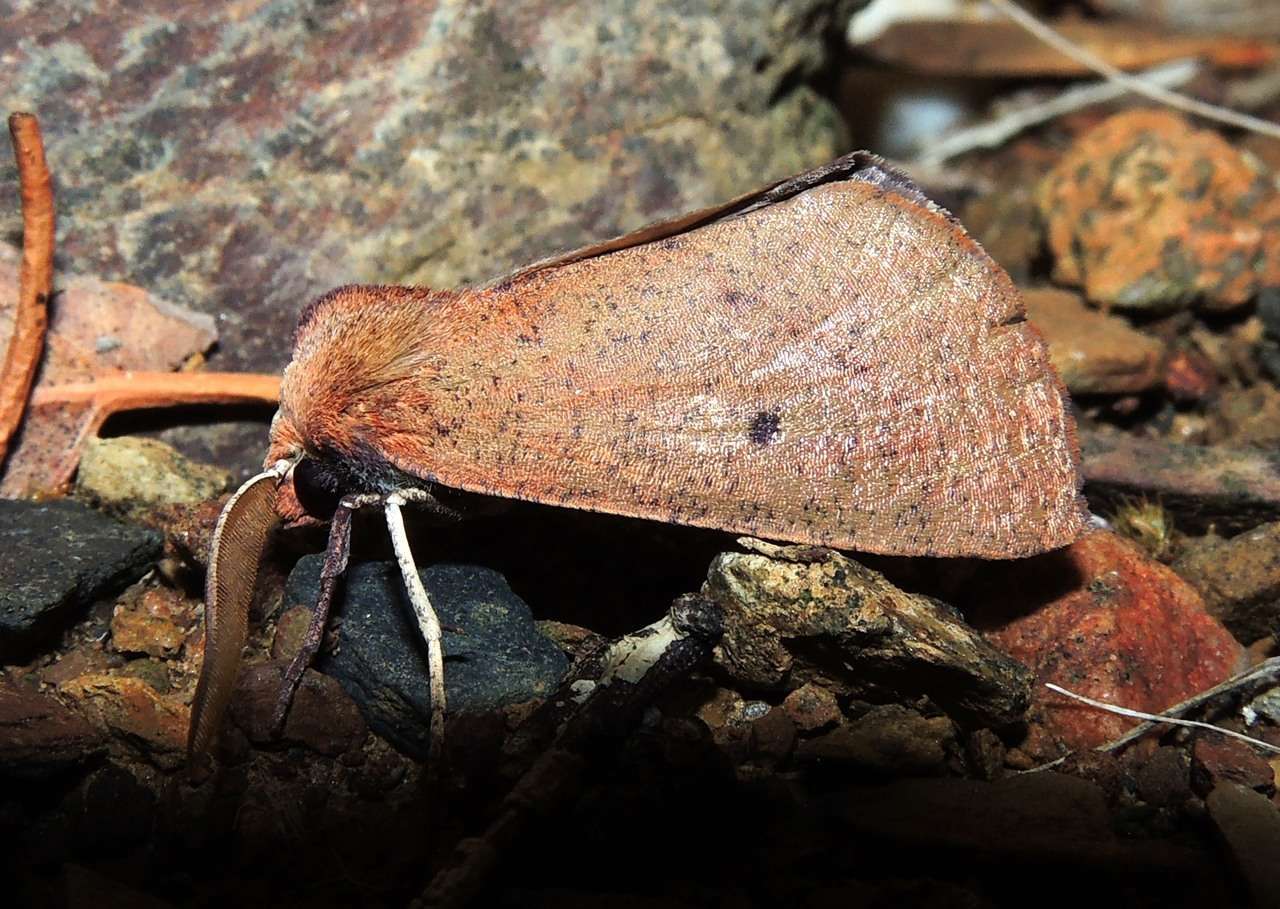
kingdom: Animalia
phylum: Arthropoda
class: Insecta
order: Lepidoptera
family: Geometridae
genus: Fisera
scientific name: Fisera hypoleuca
